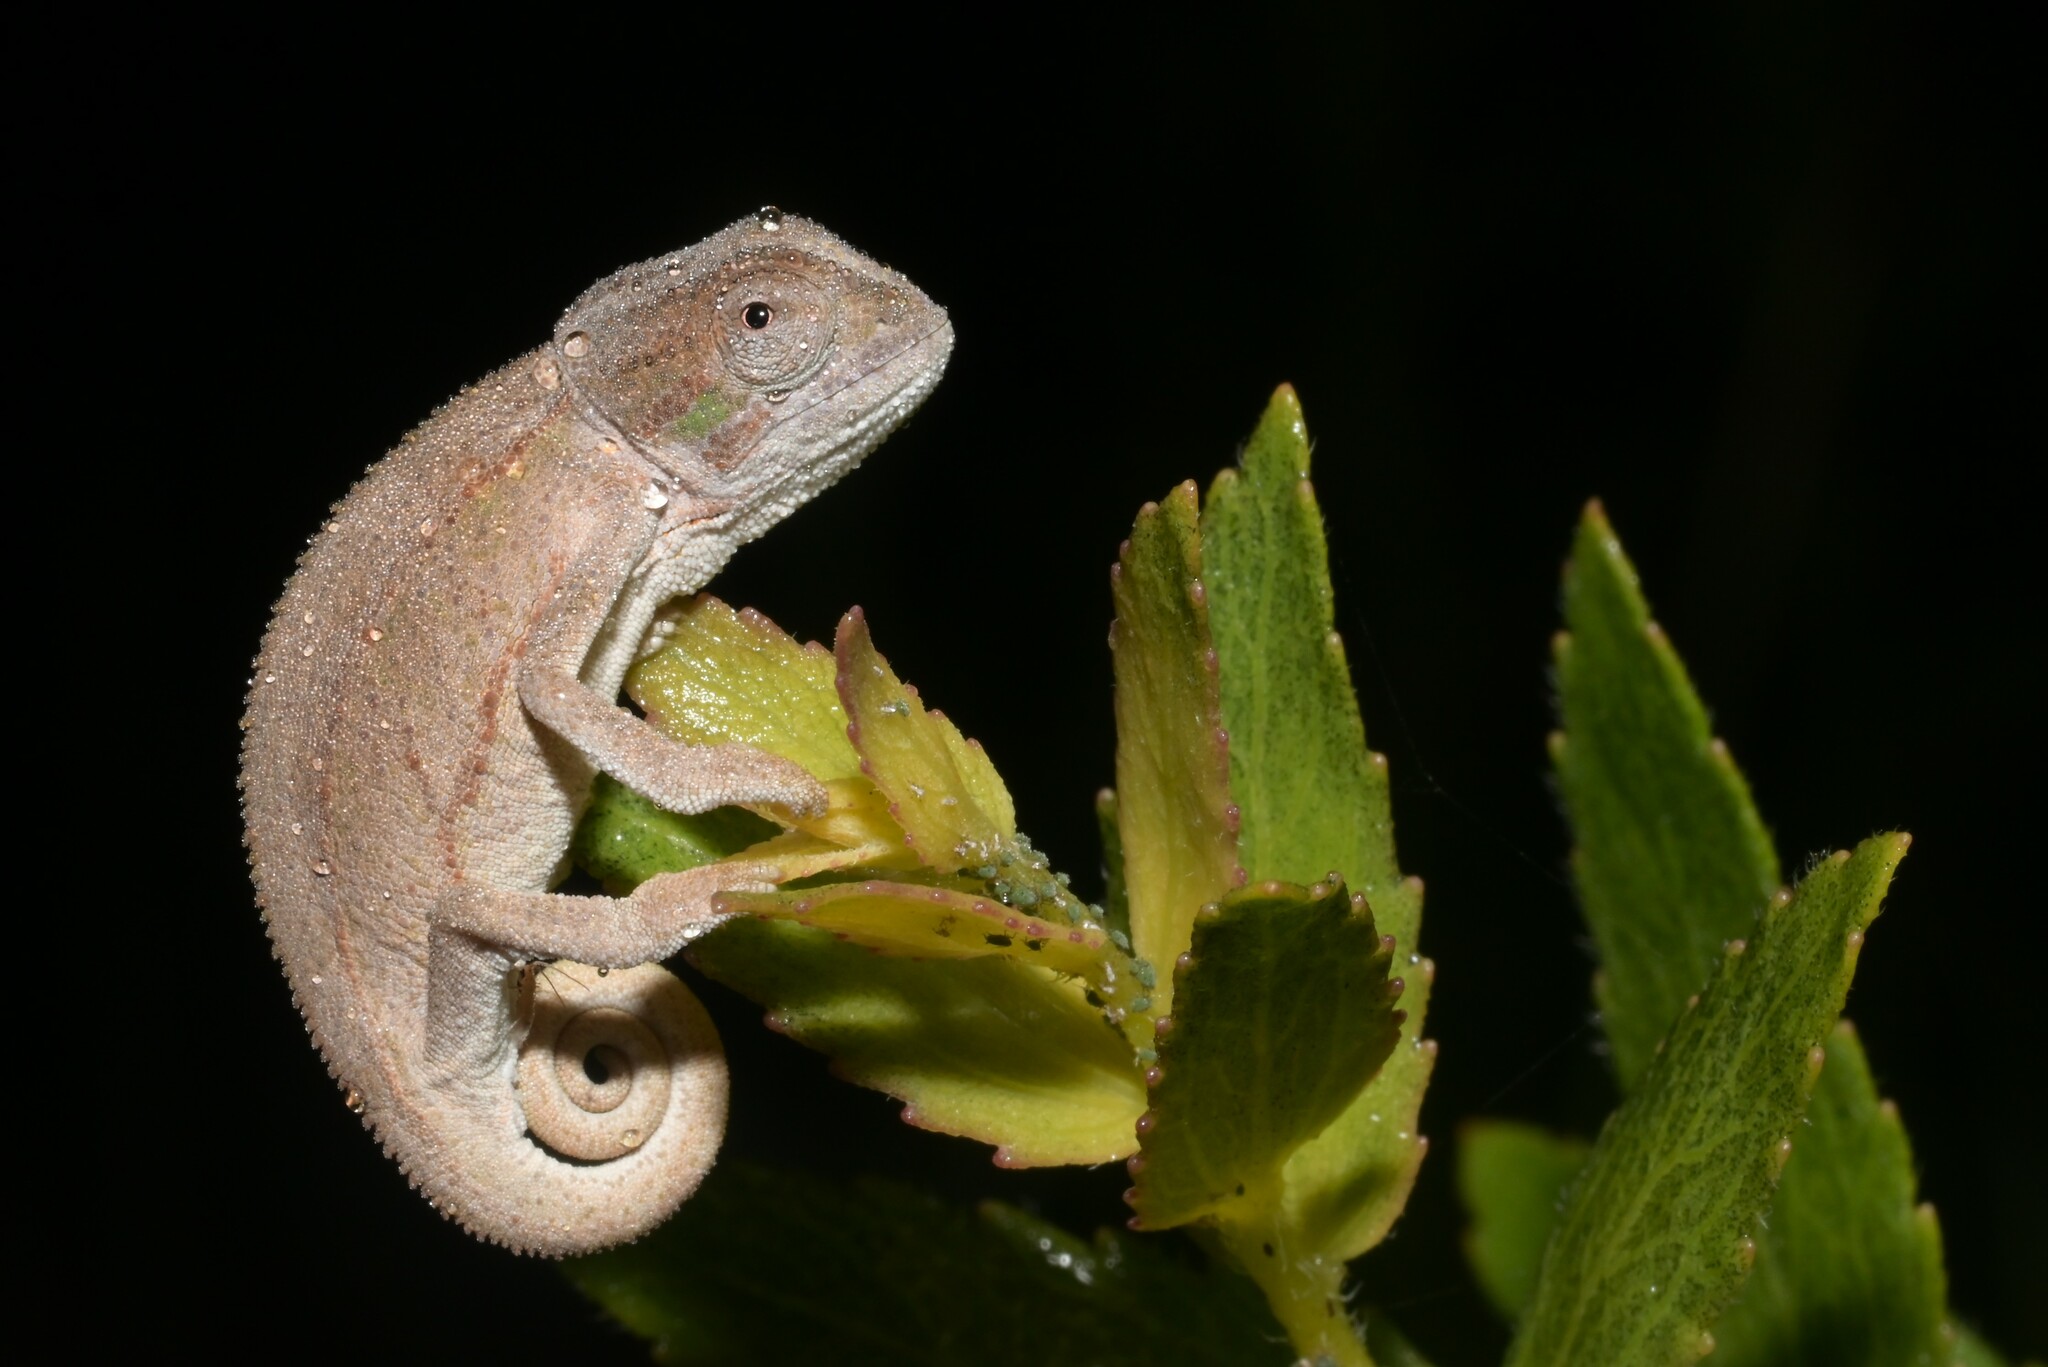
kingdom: Animalia
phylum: Chordata
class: Squamata
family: Chamaeleonidae
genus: Trioceros
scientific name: Trioceros goetzei
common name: Ilolo chameleon
